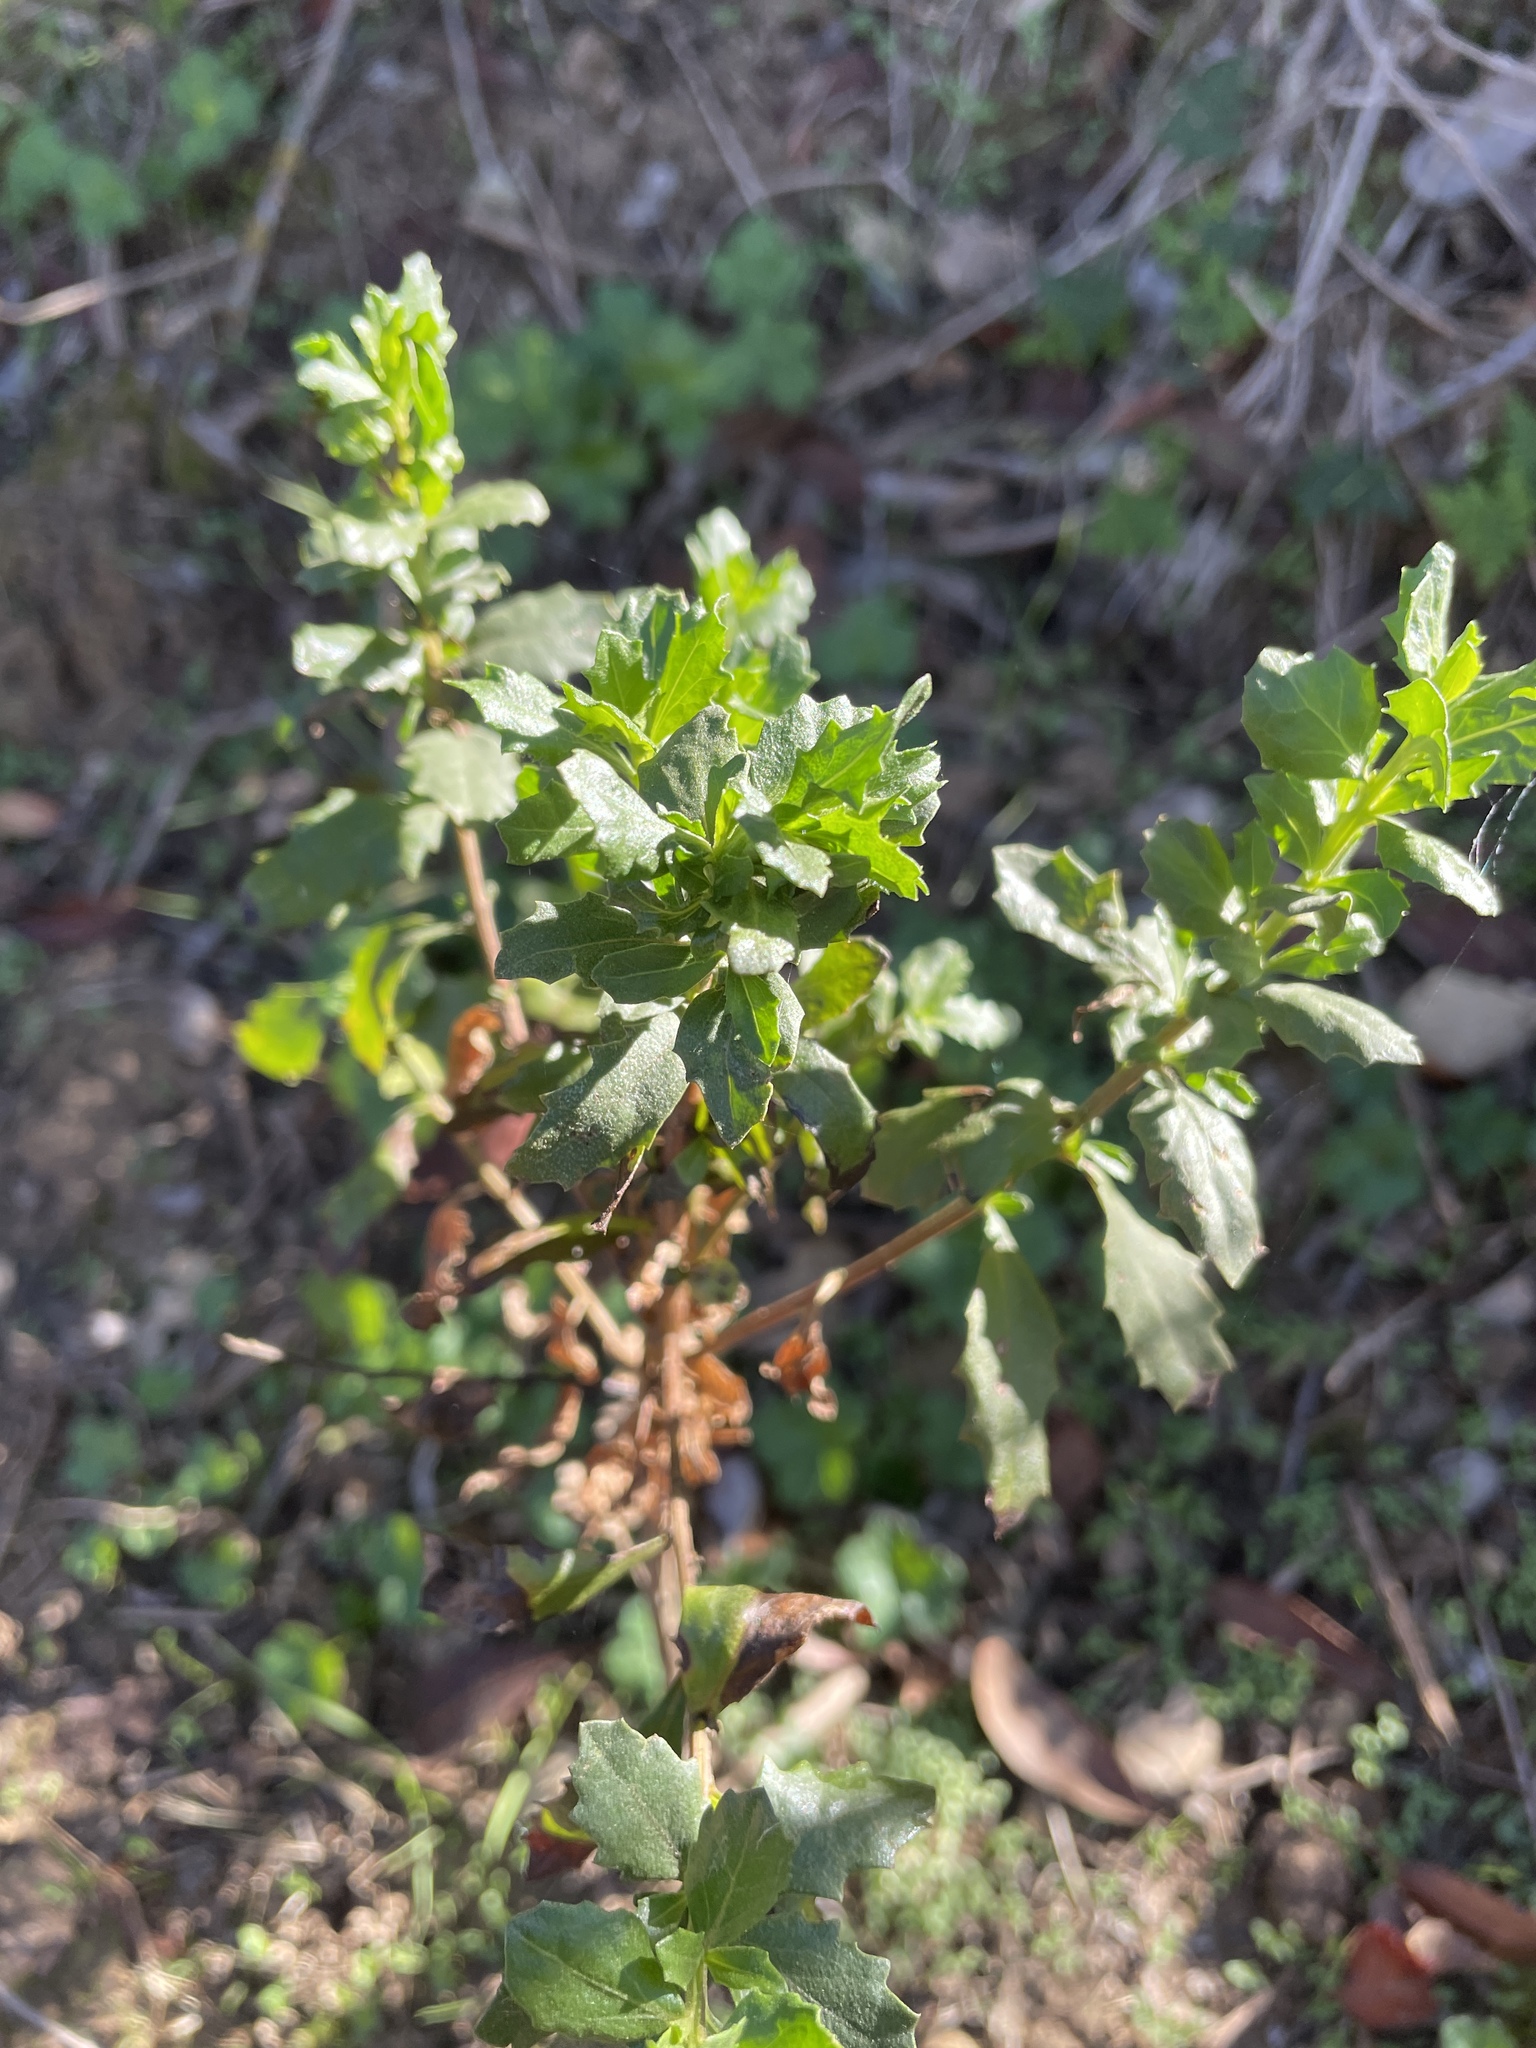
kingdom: Plantae
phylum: Tracheophyta
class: Magnoliopsida
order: Asterales
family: Asteraceae
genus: Baccharis
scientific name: Baccharis pilularis
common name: Coyotebrush
